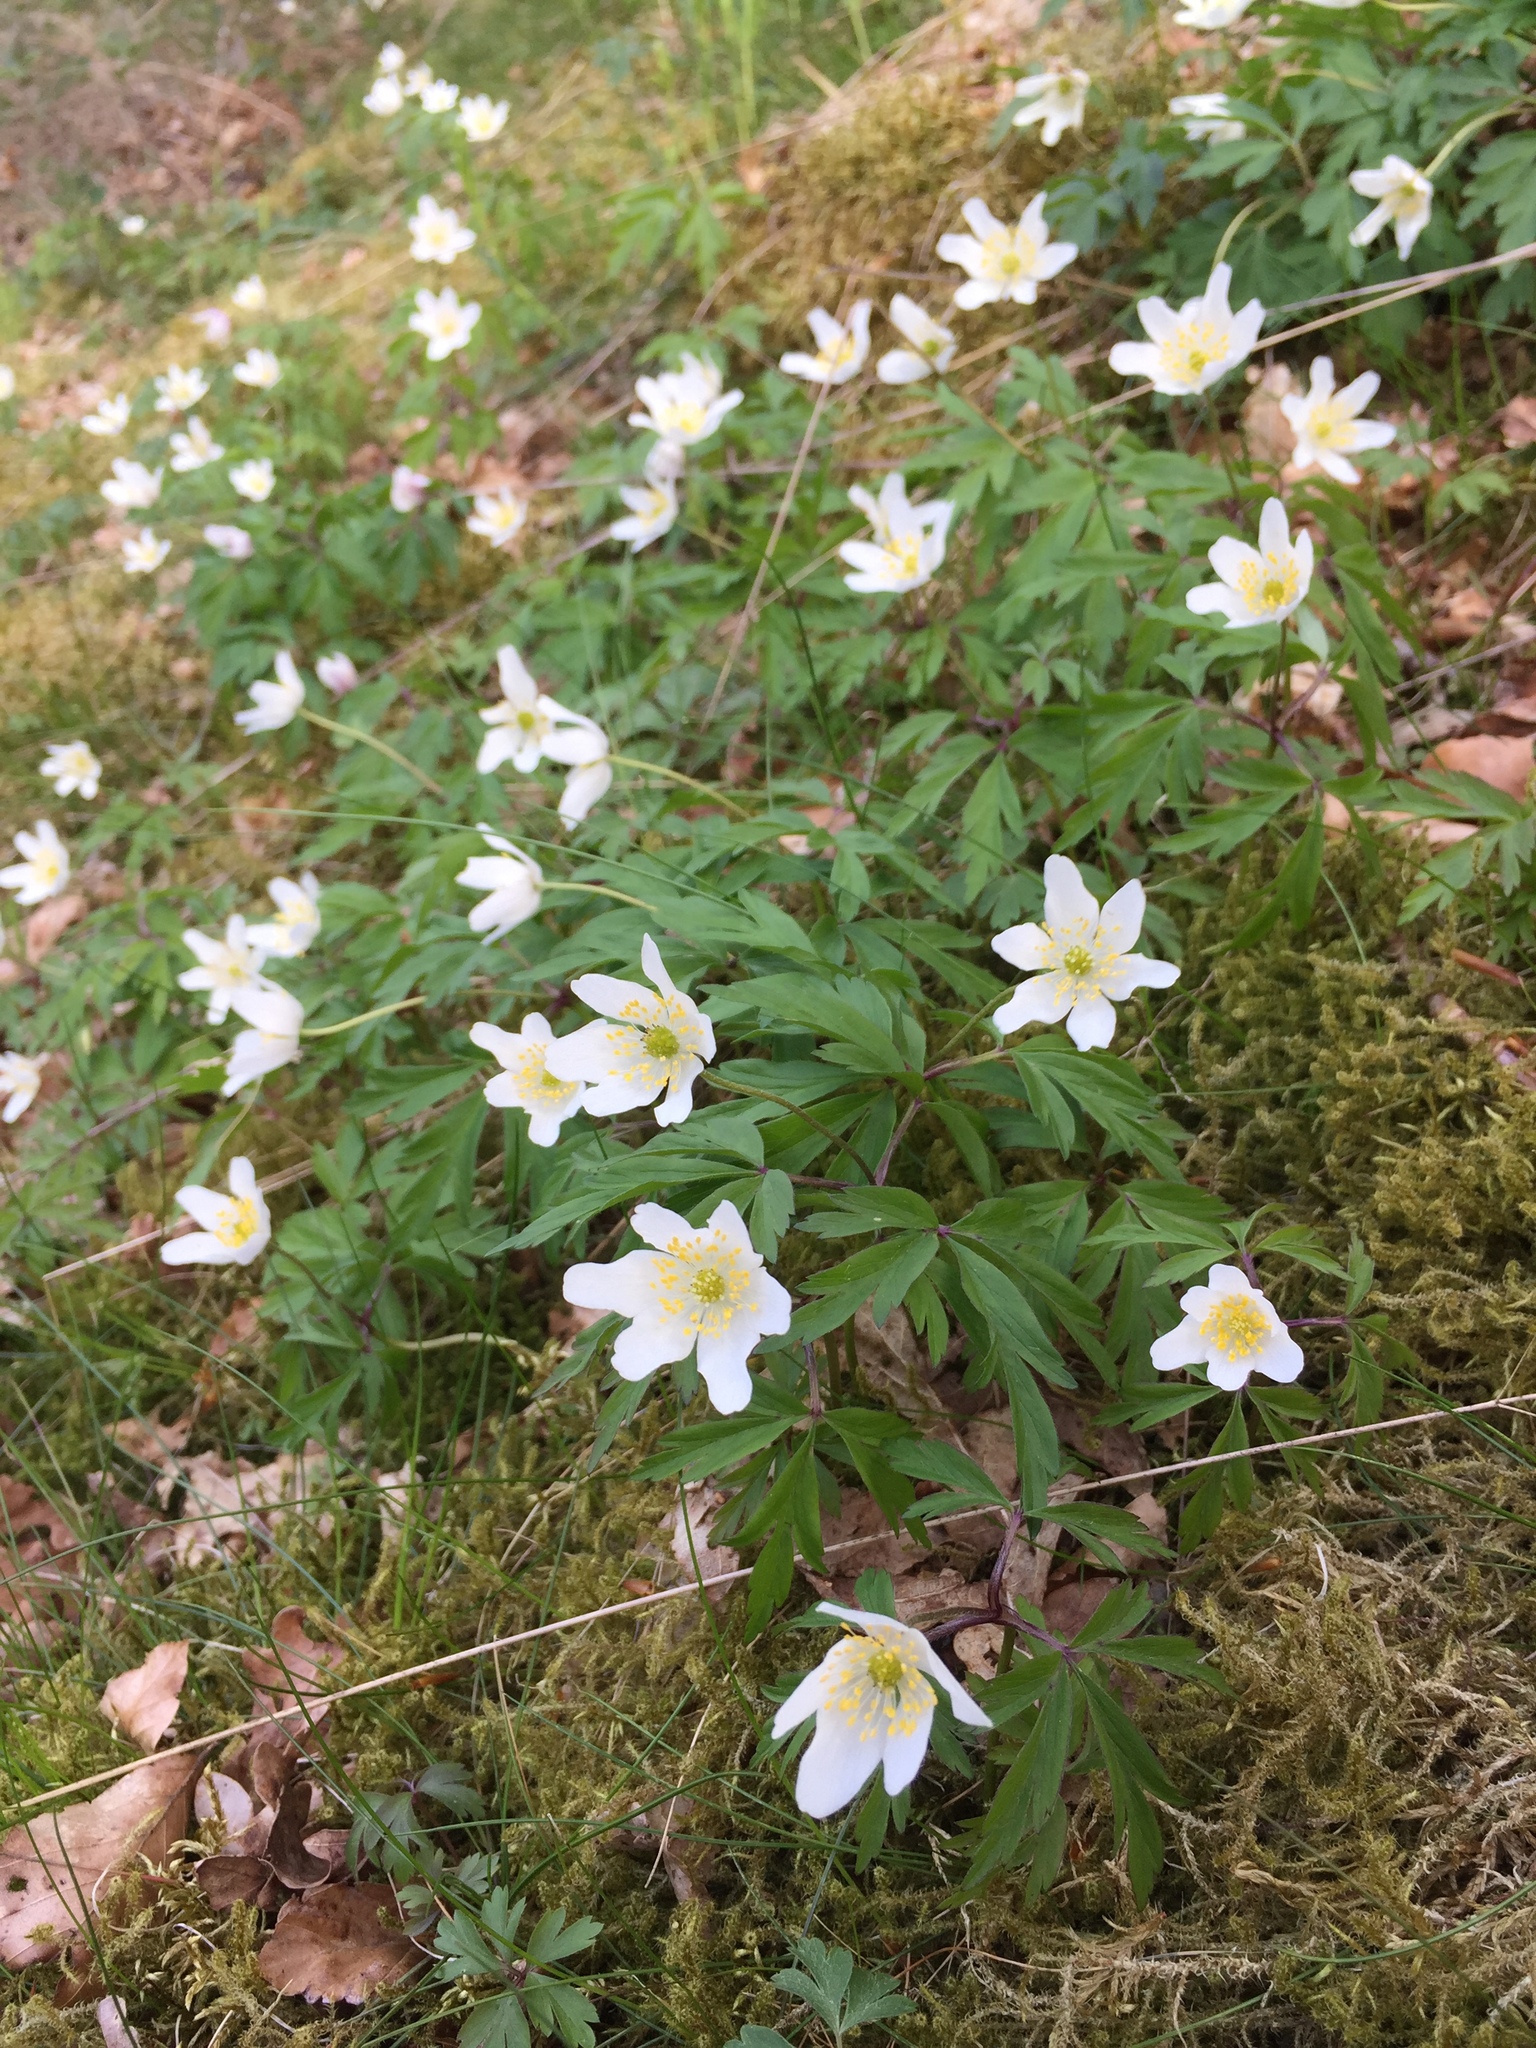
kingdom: Plantae
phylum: Tracheophyta
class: Magnoliopsida
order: Ranunculales
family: Ranunculaceae
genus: Anemone
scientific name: Anemone nemorosa
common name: Wood anemone
